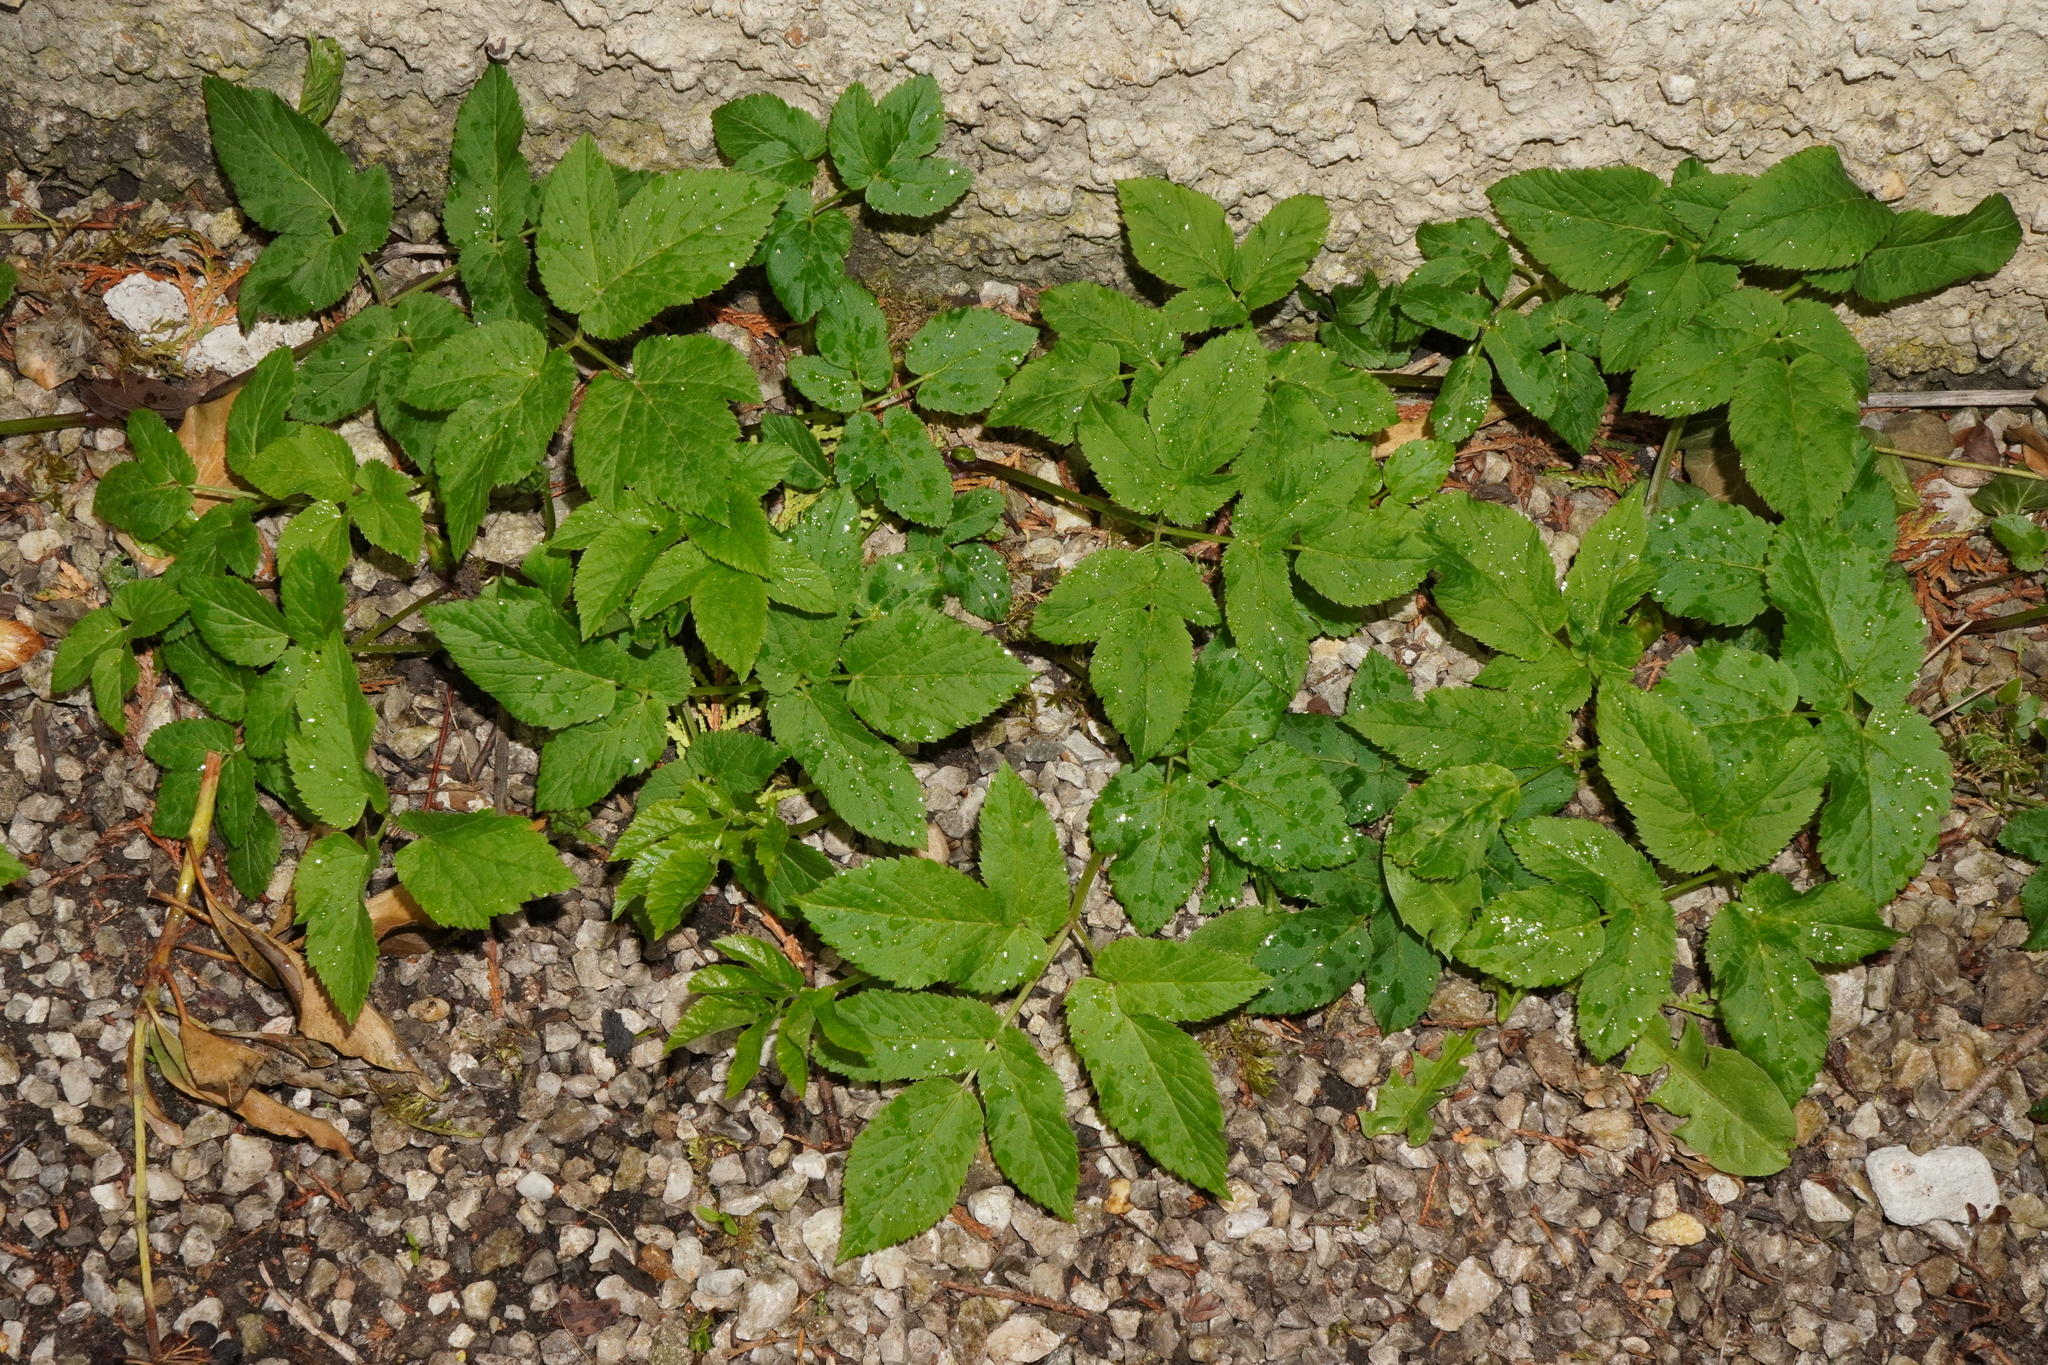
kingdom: Plantae
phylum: Tracheophyta
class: Magnoliopsida
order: Apiales
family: Apiaceae
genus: Aegopodium
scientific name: Aegopodium podagraria
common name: Ground-elder
